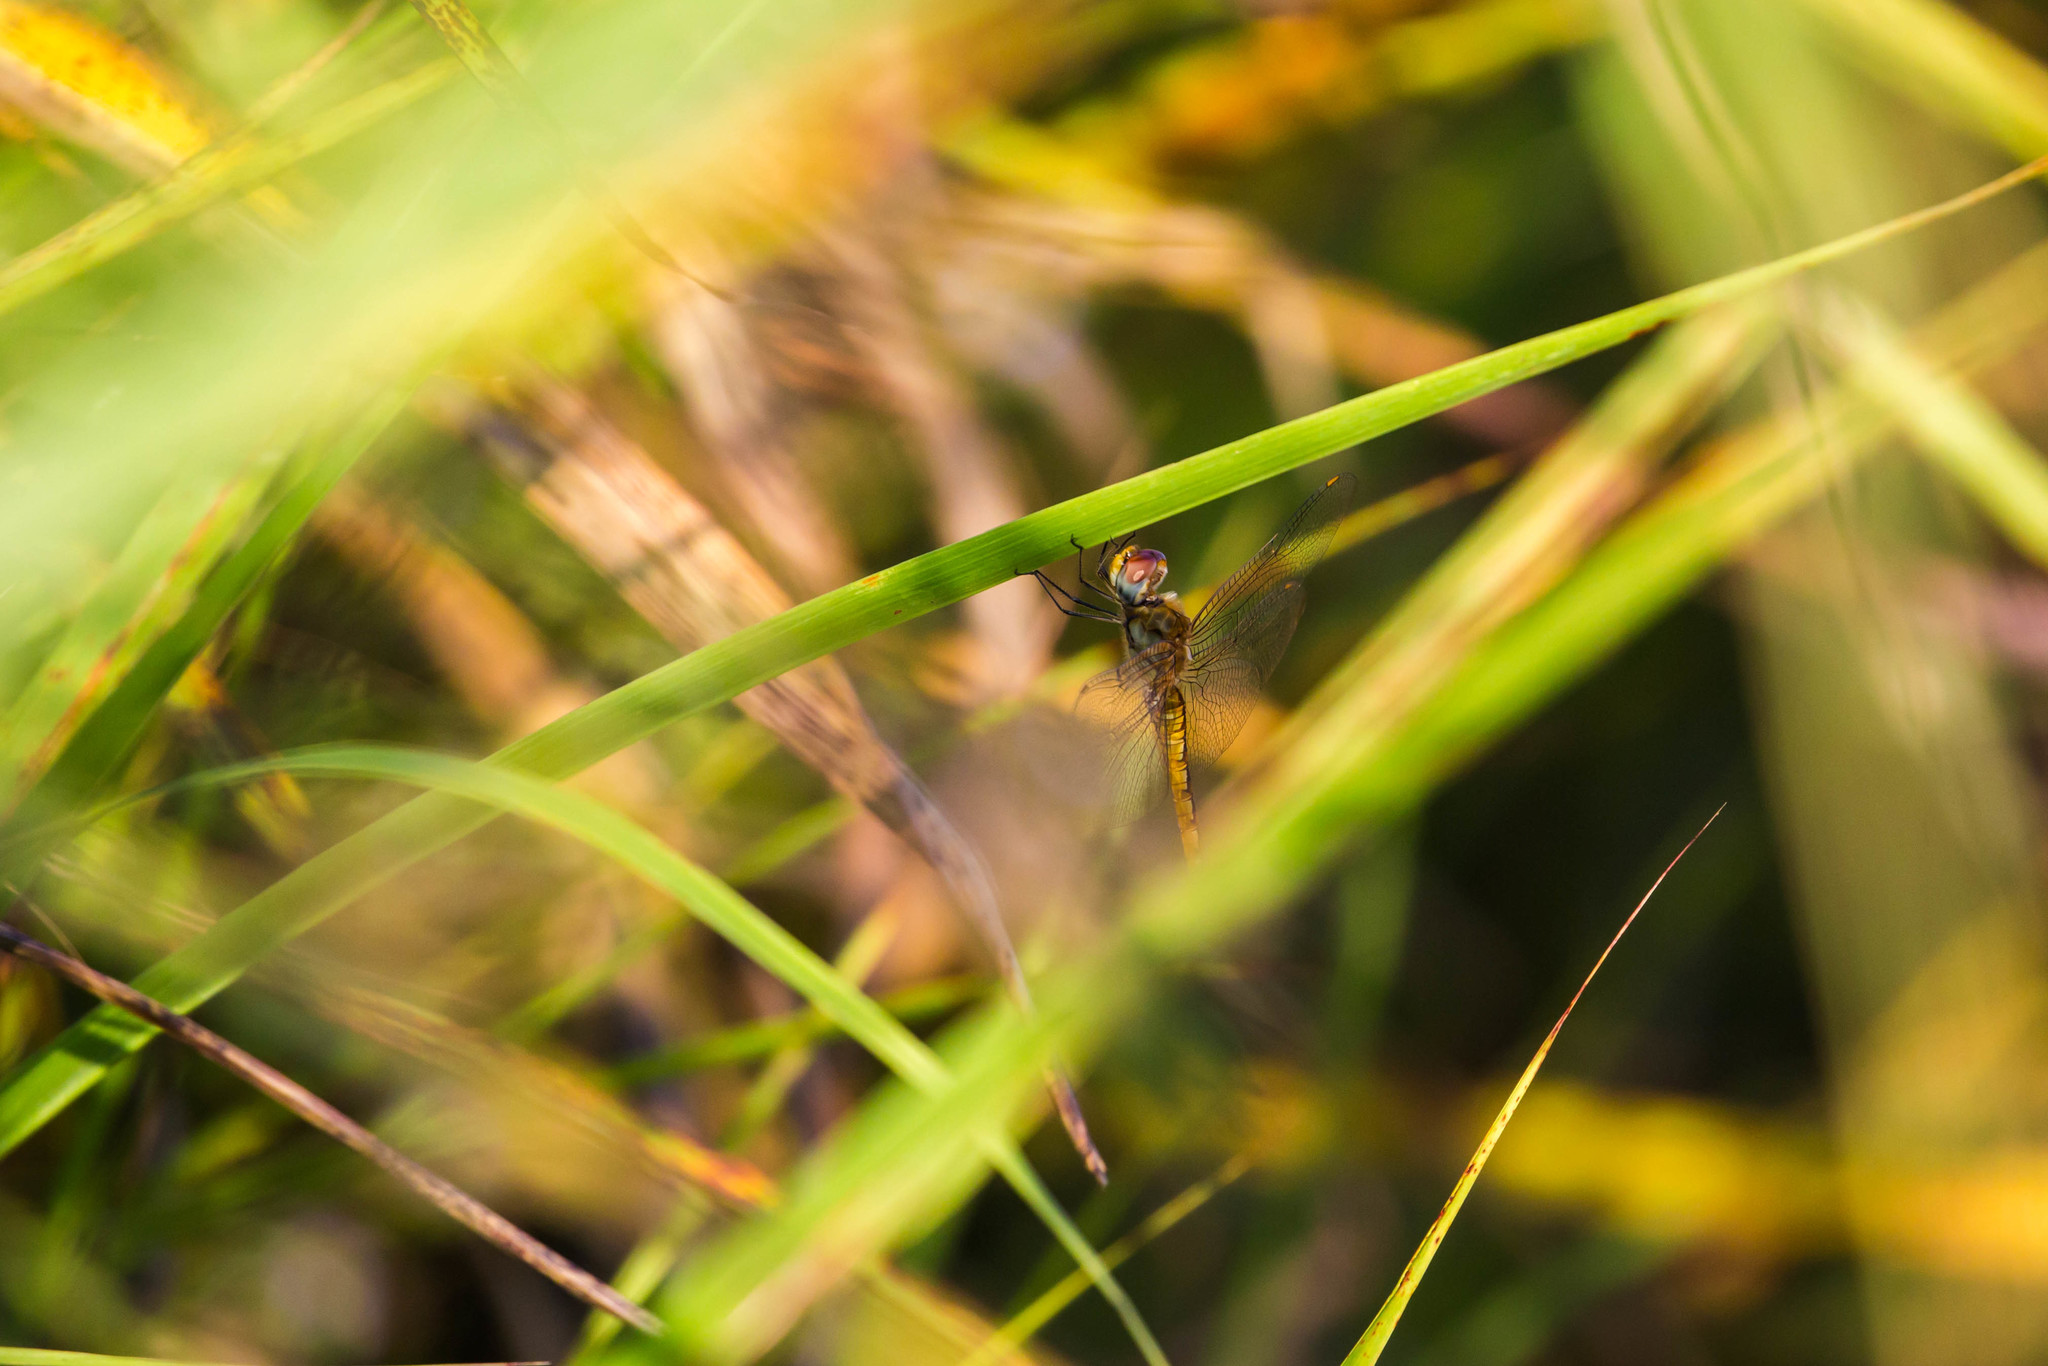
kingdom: Animalia
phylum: Arthropoda
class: Insecta
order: Odonata
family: Libellulidae
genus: Pantala
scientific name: Pantala flavescens
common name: Wandering glider
